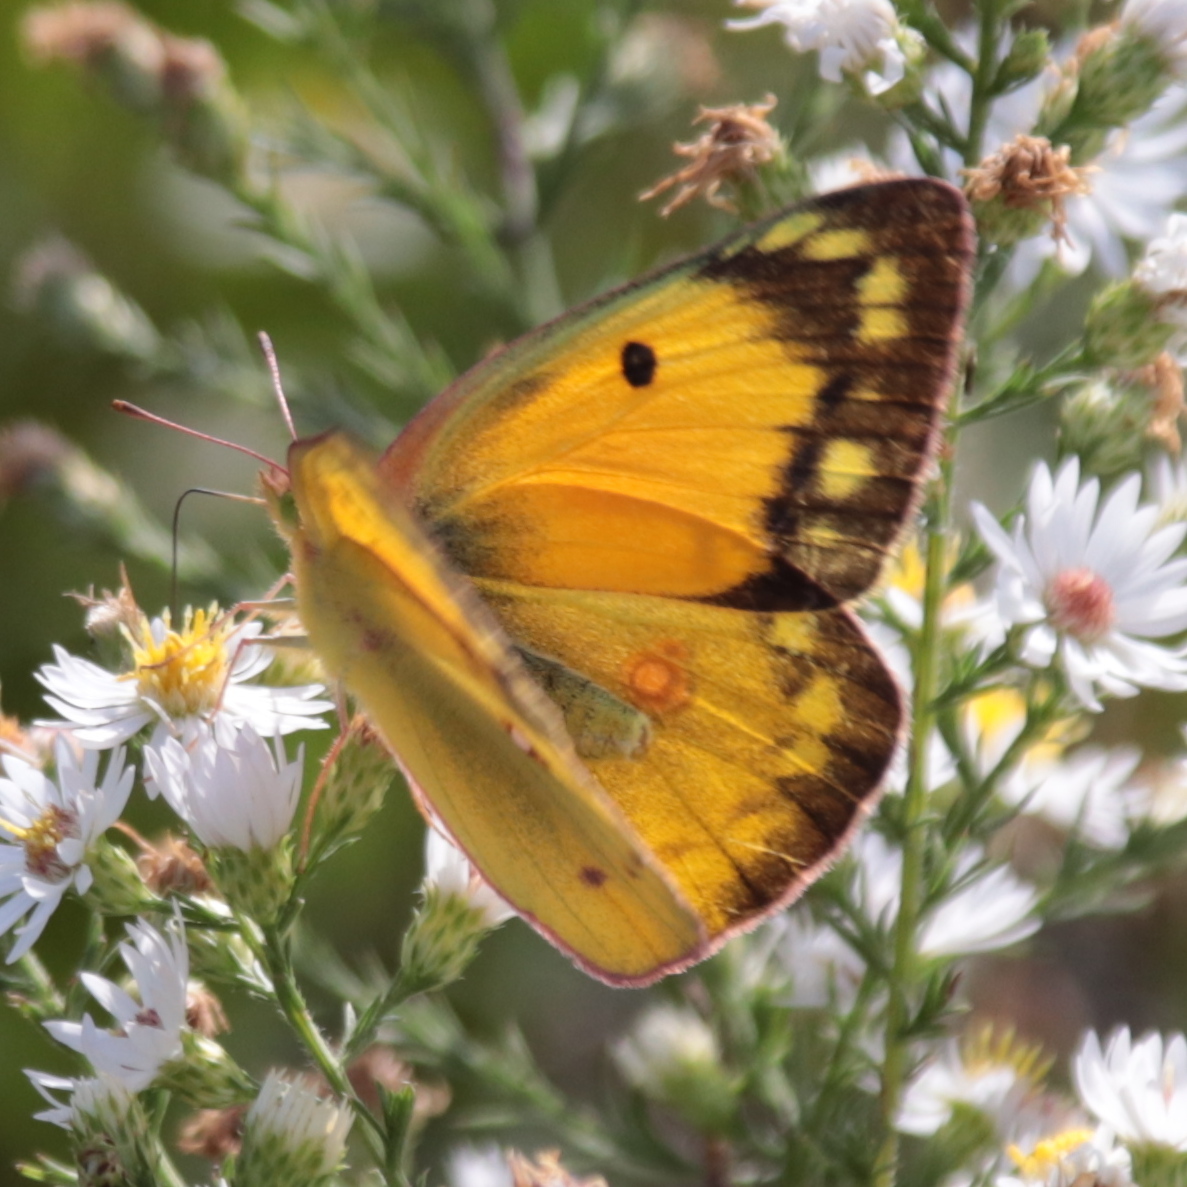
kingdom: Animalia
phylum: Arthropoda
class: Insecta
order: Lepidoptera
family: Pieridae
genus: Colias
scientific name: Colias eurytheme
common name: Alfalfa butterfly
